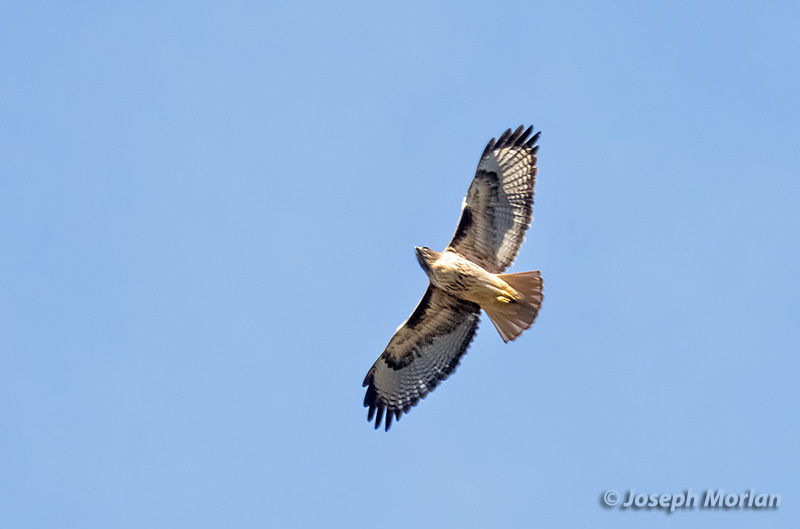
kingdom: Animalia
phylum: Chordata
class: Aves
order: Accipitriformes
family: Accipitridae
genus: Buteo
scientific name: Buteo jamaicensis
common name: Red-tailed hawk
